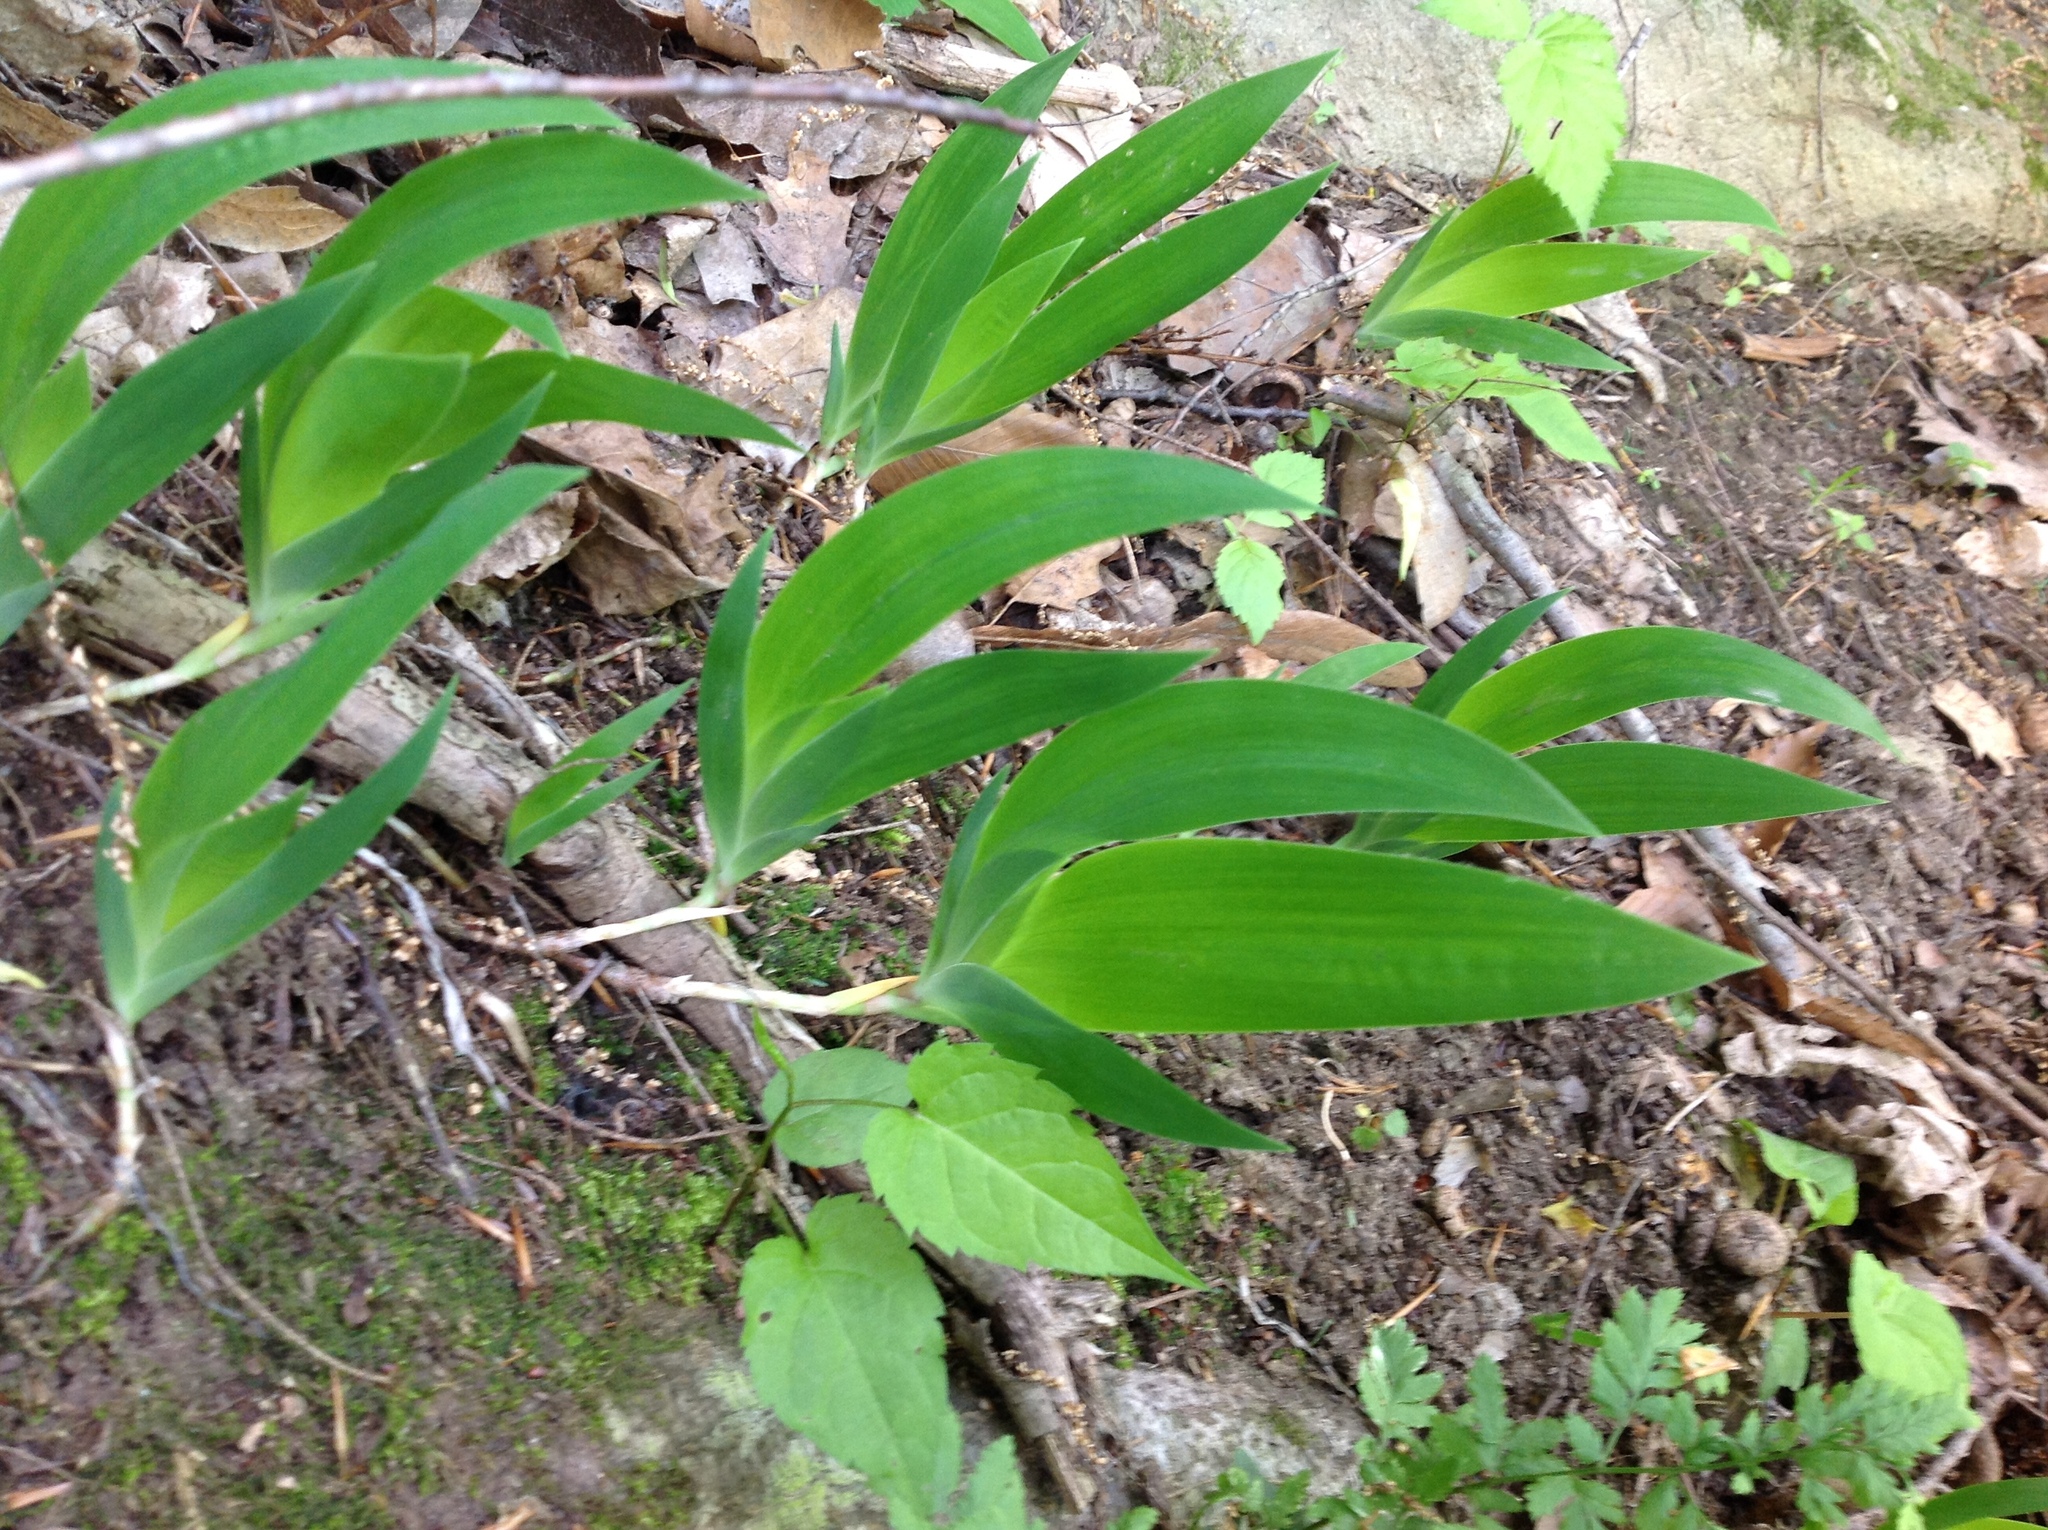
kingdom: Plantae
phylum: Tracheophyta
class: Liliopsida
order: Asparagales
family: Iridaceae
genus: Iris
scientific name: Iris cristata
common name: Crested iris
